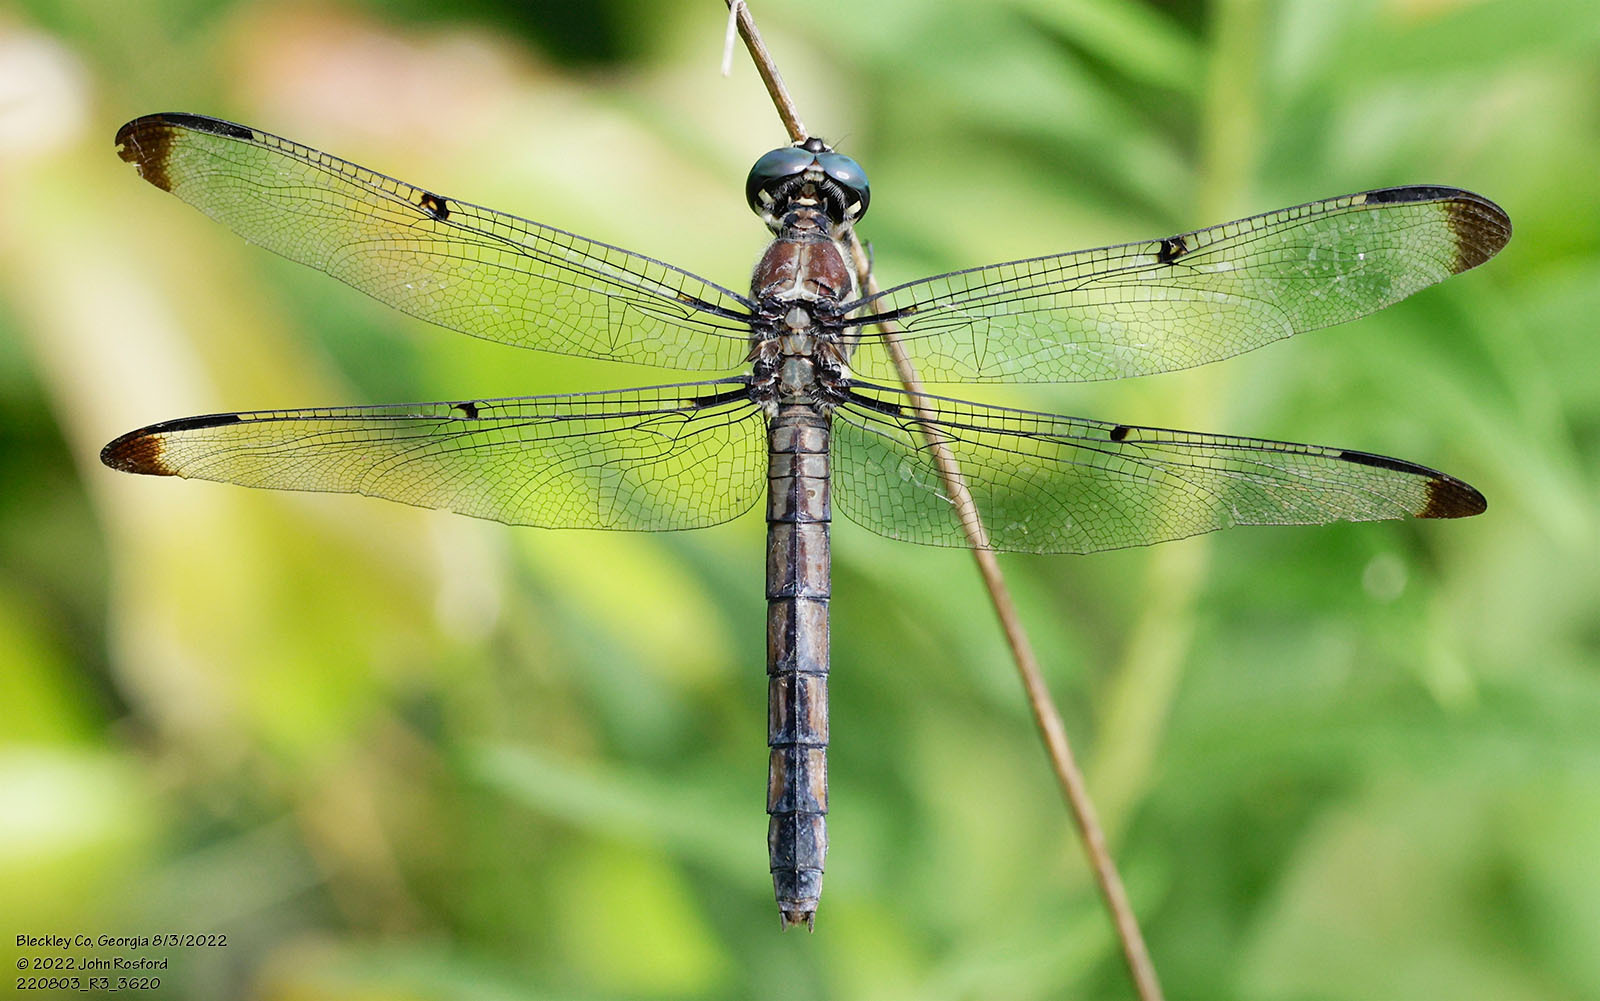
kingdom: Animalia
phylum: Arthropoda
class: Insecta
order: Odonata
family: Libellulidae
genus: Libellula
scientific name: Libellula vibrans
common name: Great blue skimmer
